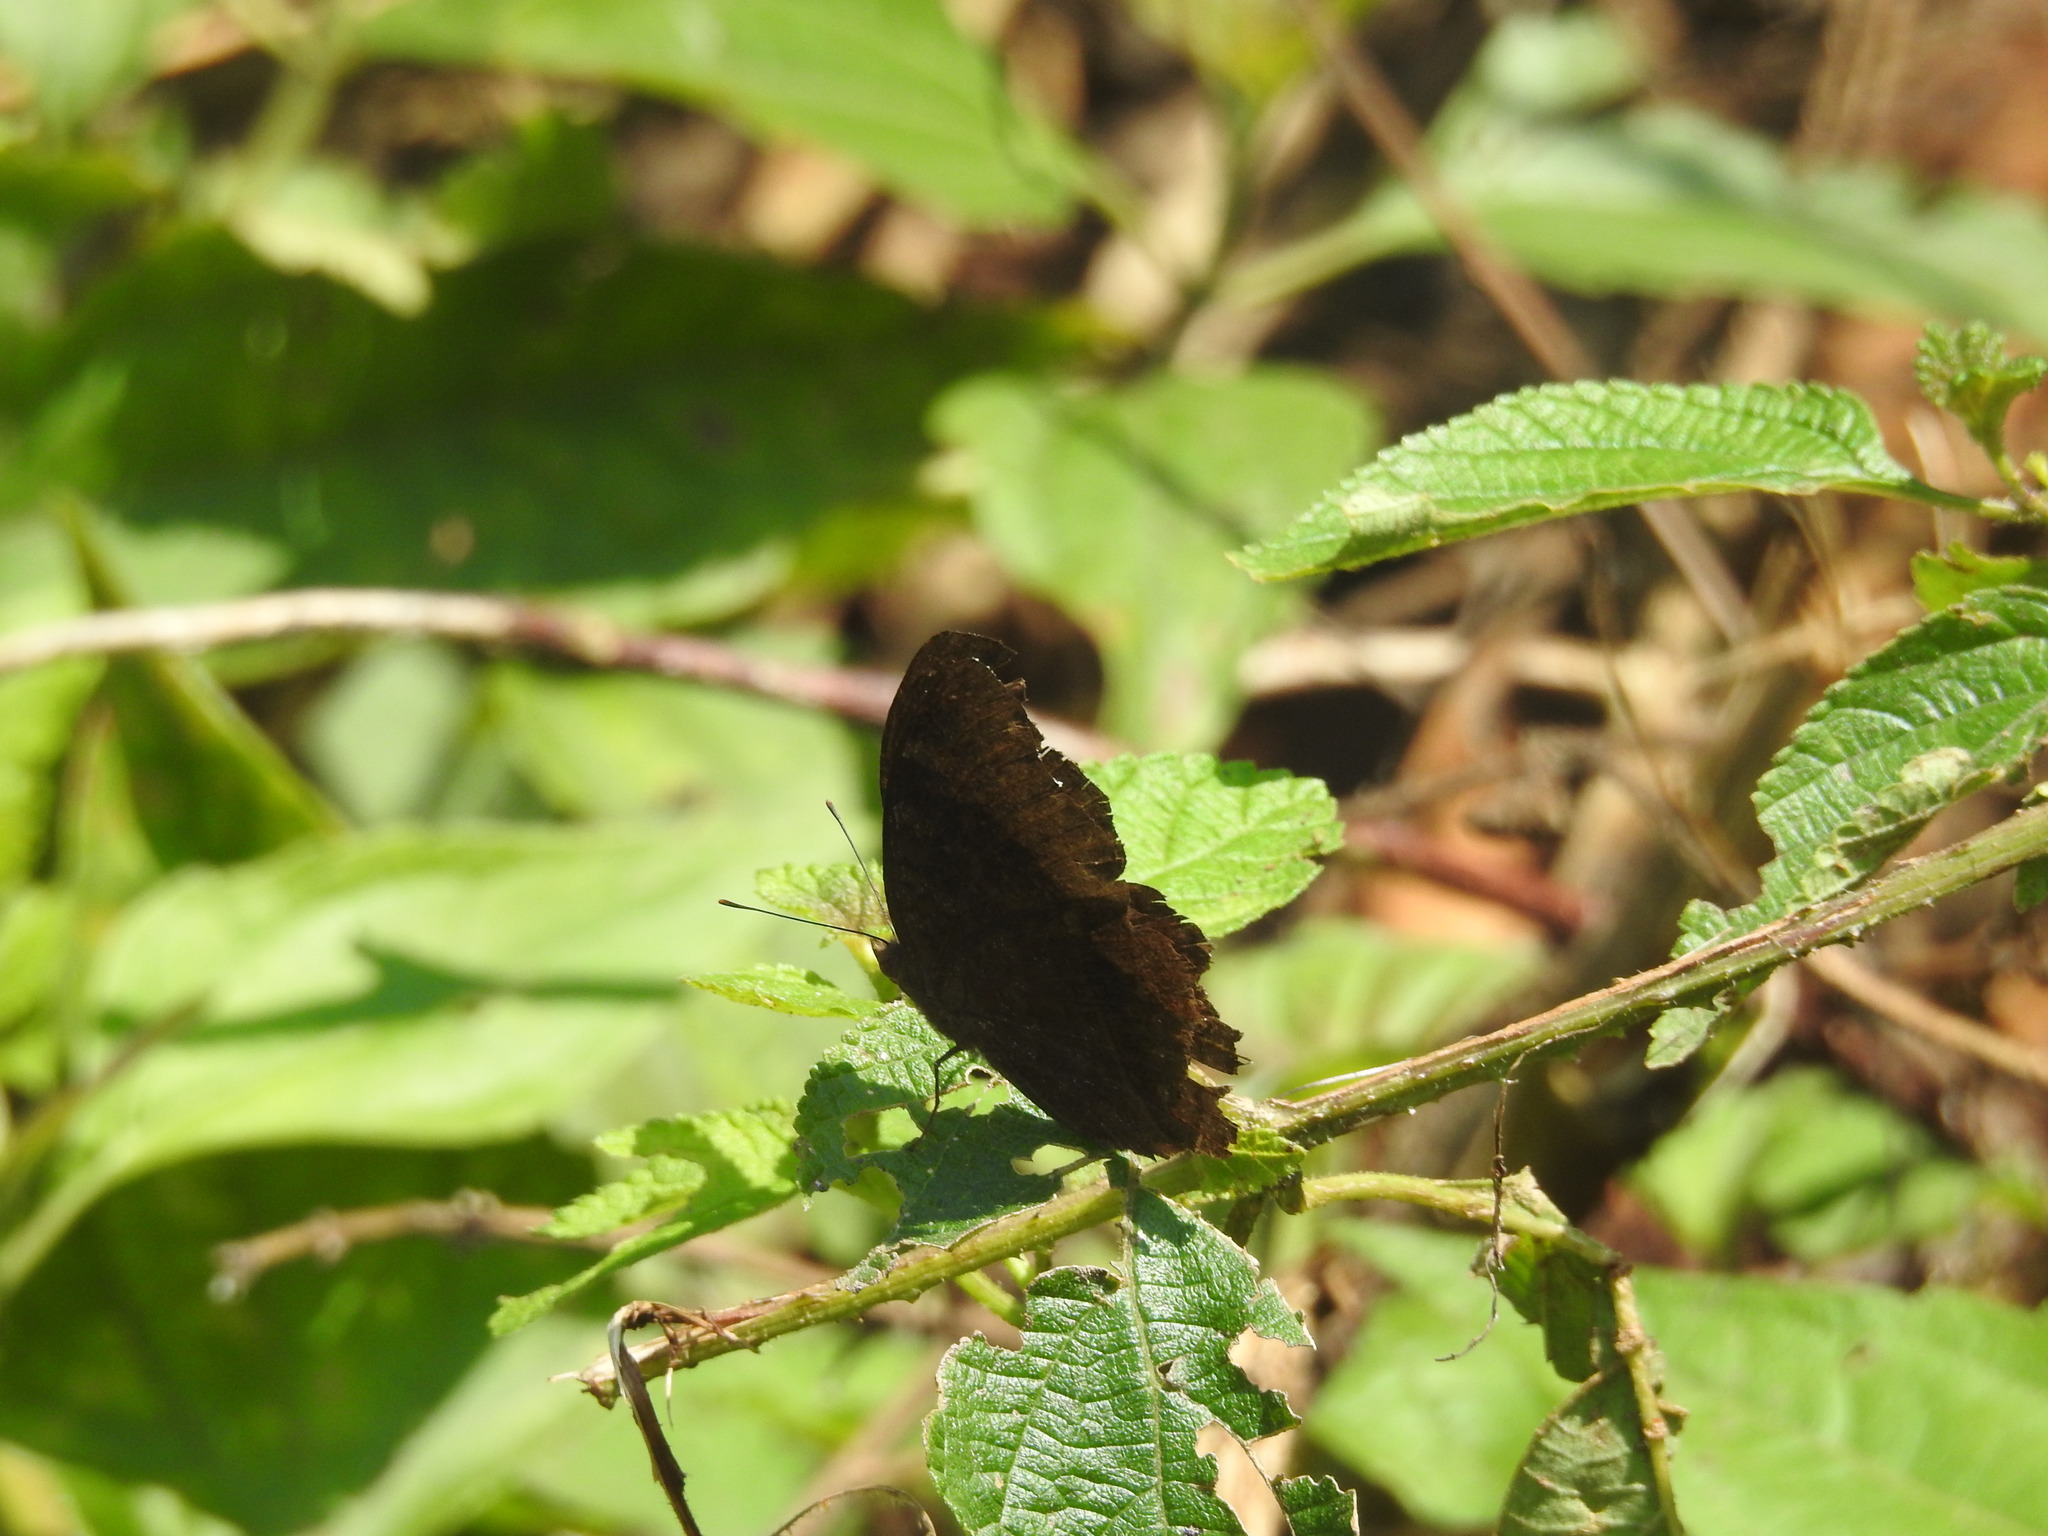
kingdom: Animalia
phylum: Arthropoda
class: Insecta
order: Lepidoptera
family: Nymphalidae
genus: Junonia
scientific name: Junonia iphita
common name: Chocolate pansy
